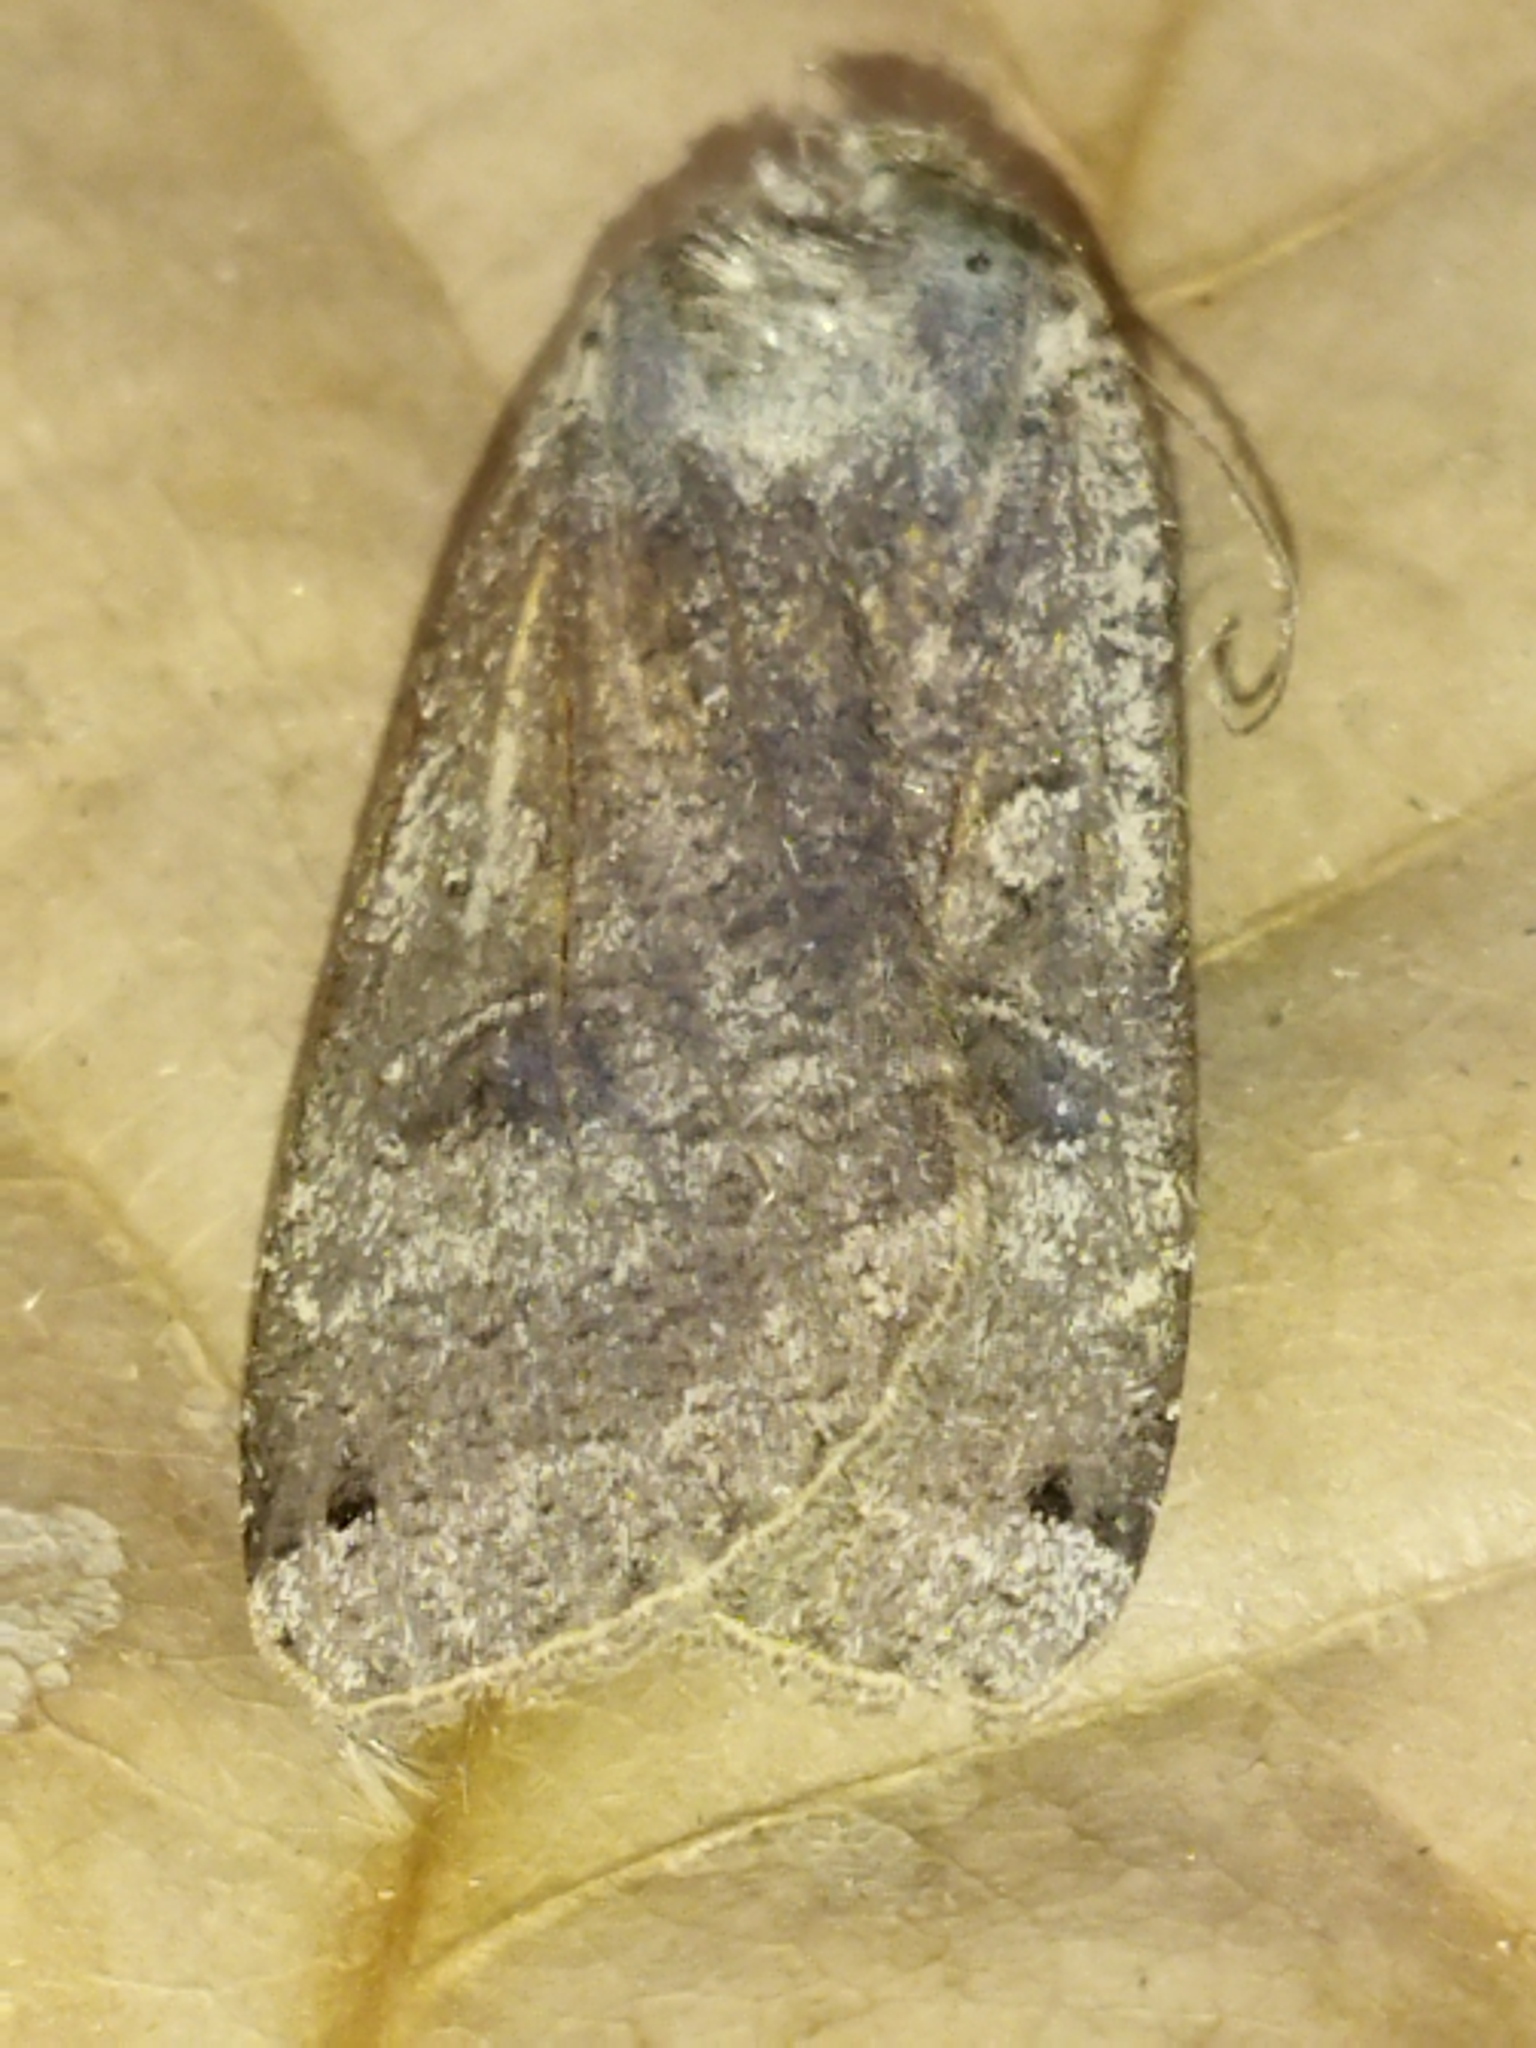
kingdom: Animalia
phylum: Arthropoda
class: Insecta
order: Lepidoptera
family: Noctuidae
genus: Noctua
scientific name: Noctua pronuba
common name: Large yellow underwing
